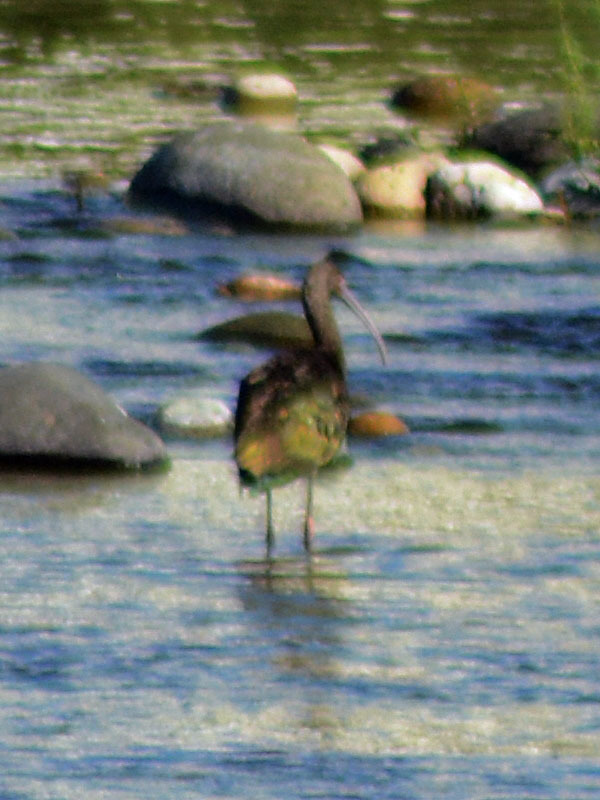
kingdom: Animalia
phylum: Chordata
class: Aves
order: Pelecaniformes
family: Threskiornithidae
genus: Plegadis
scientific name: Plegadis chihi
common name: White-faced ibis
